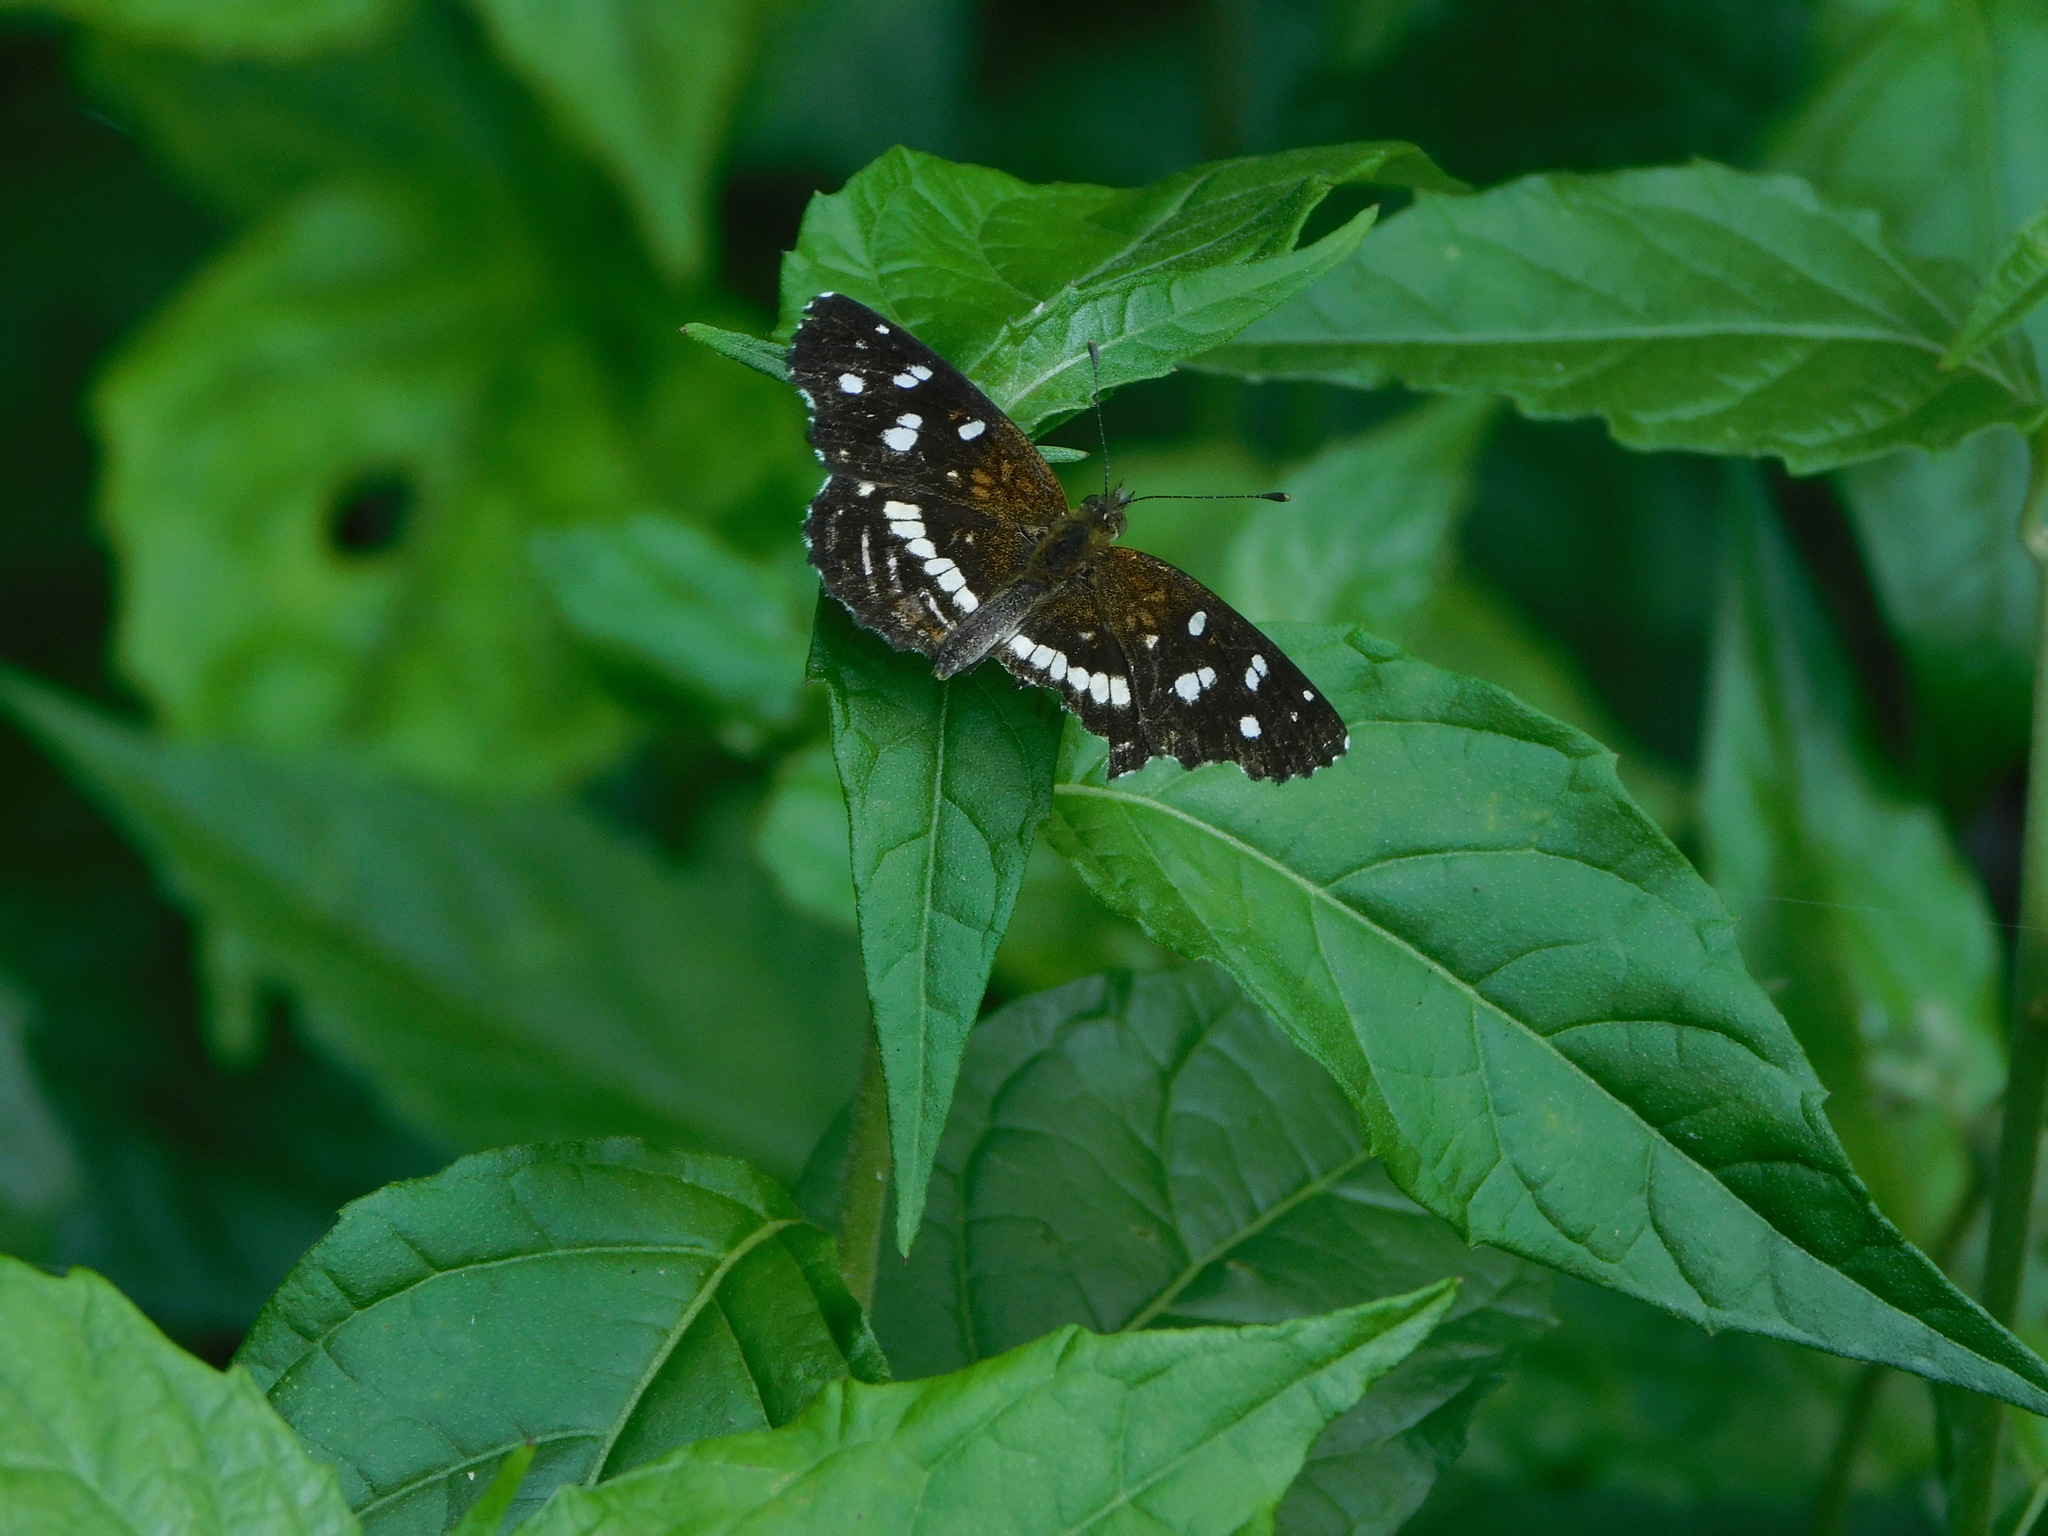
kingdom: Animalia
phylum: Arthropoda
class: Insecta
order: Lepidoptera
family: Nymphalidae
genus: Ortilia
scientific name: Ortilia ithra
